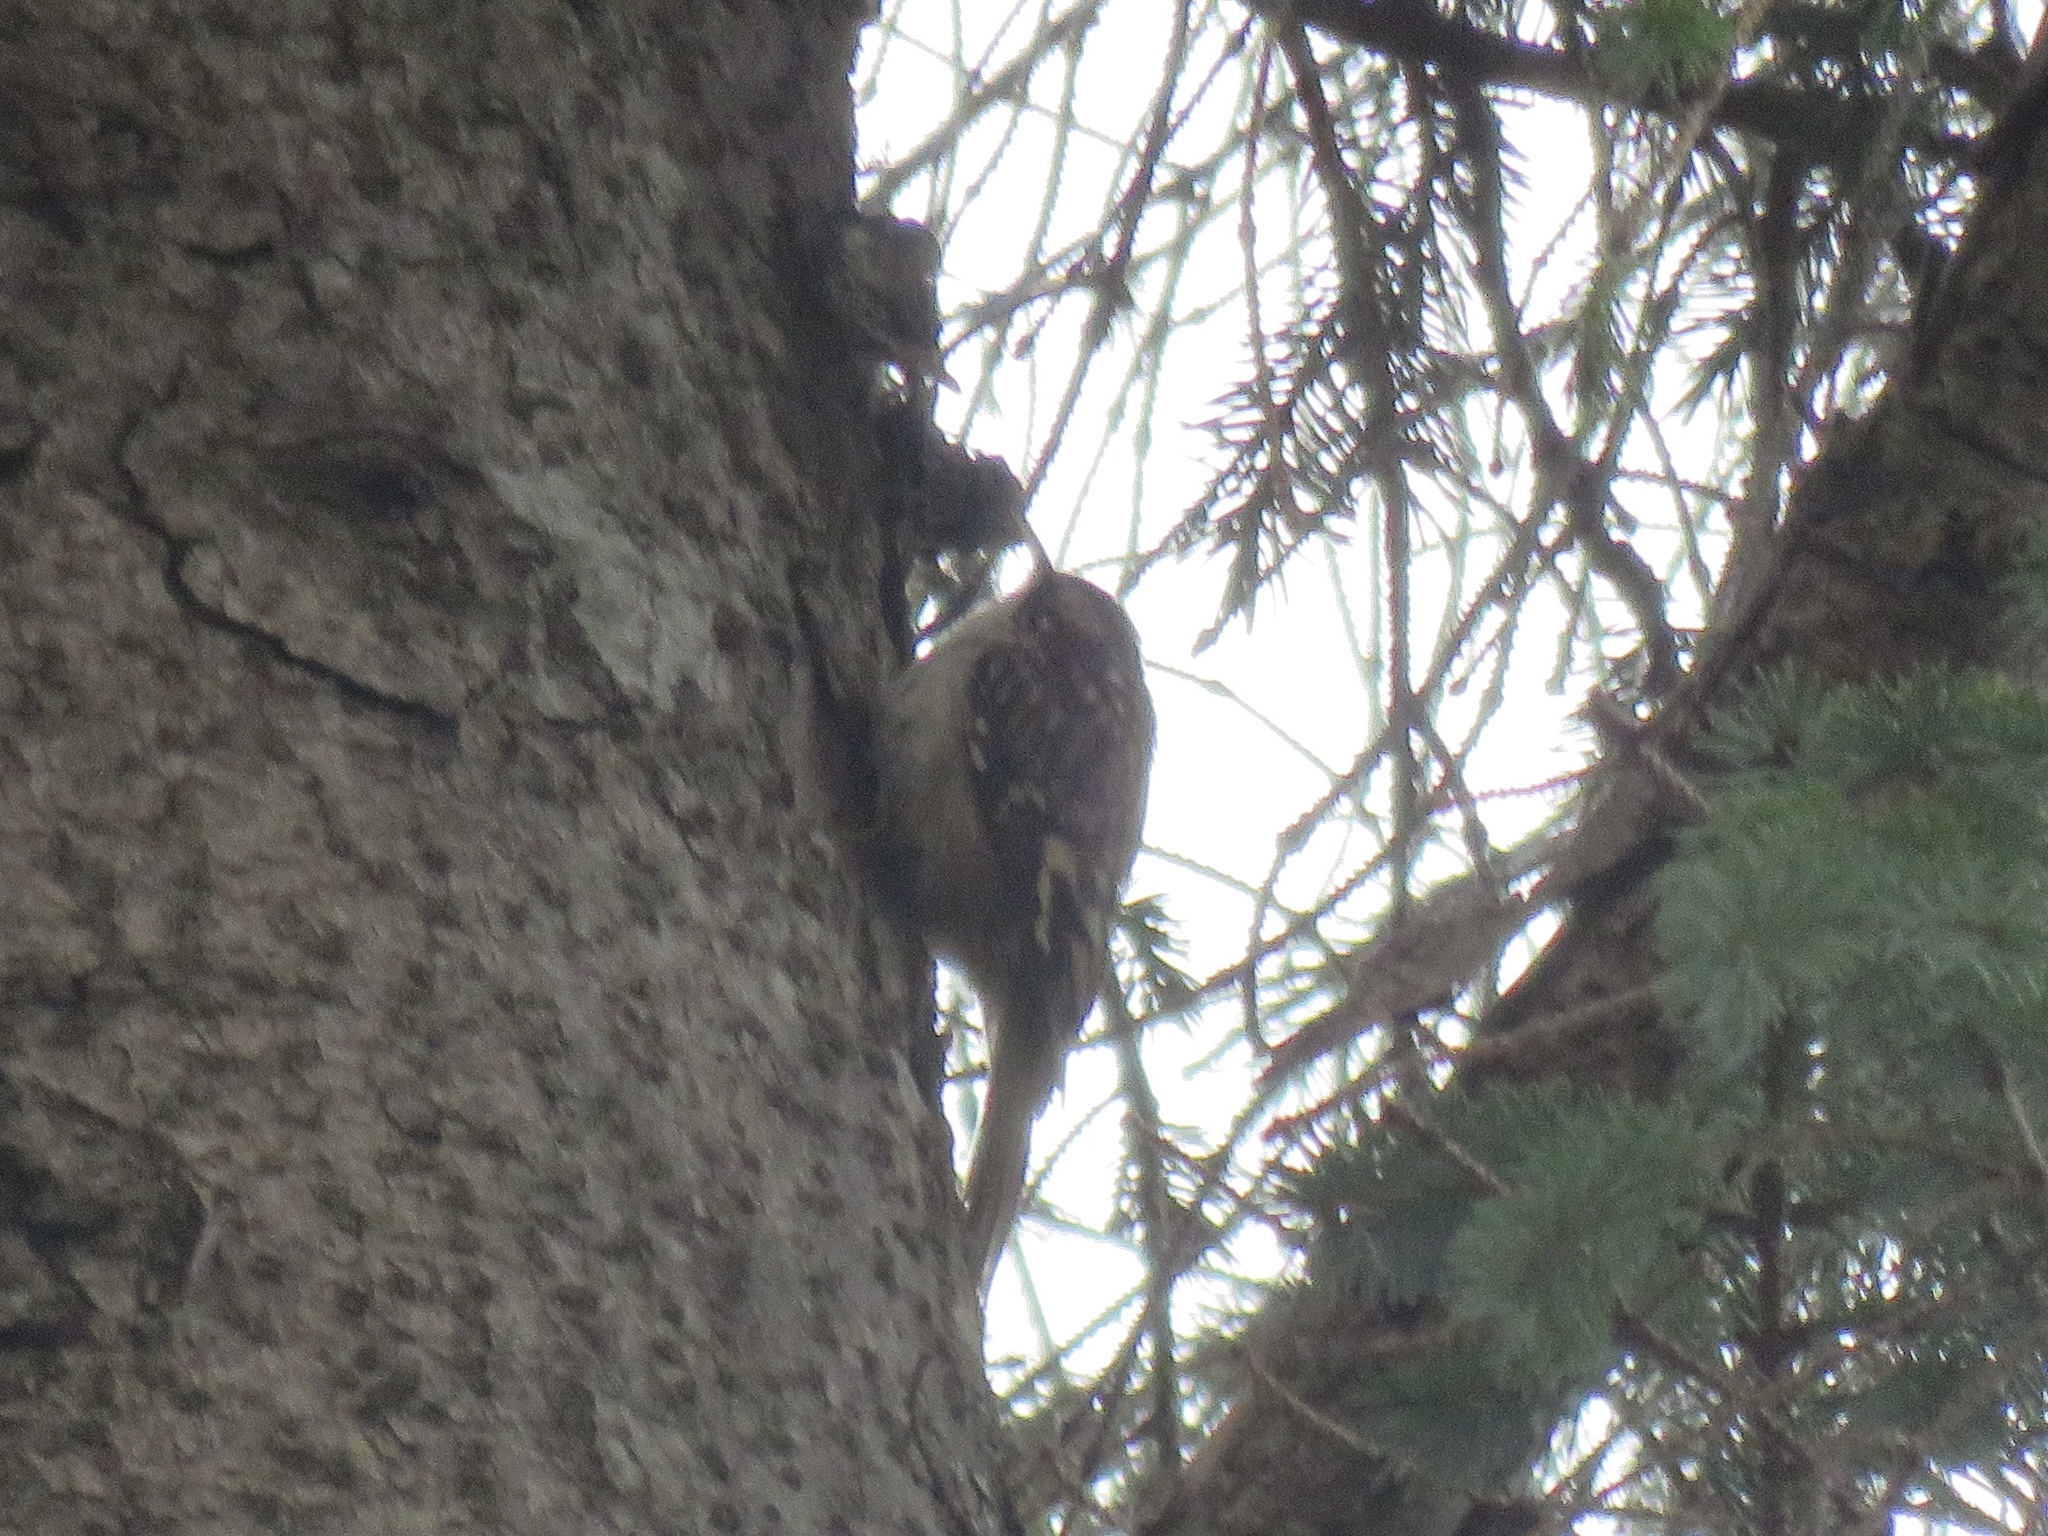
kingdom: Animalia
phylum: Chordata
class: Aves
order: Passeriformes
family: Certhiidae
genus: Certhia
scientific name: Certhia americana
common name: Brown creeper
